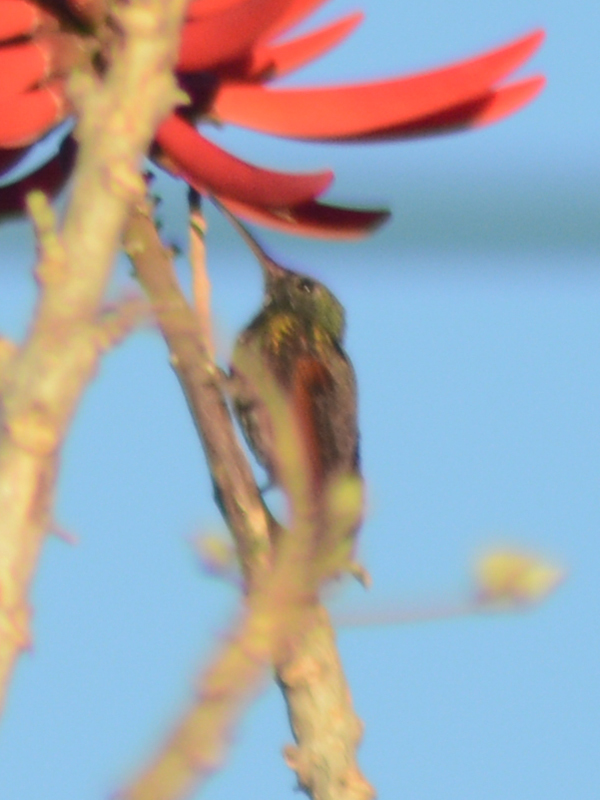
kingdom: Animalia
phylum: Chordata
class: Aves
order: Apodiformes
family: Trochilidae
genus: Saucerottia
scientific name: Saucerottia beryllina
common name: Berylline hummingbird
